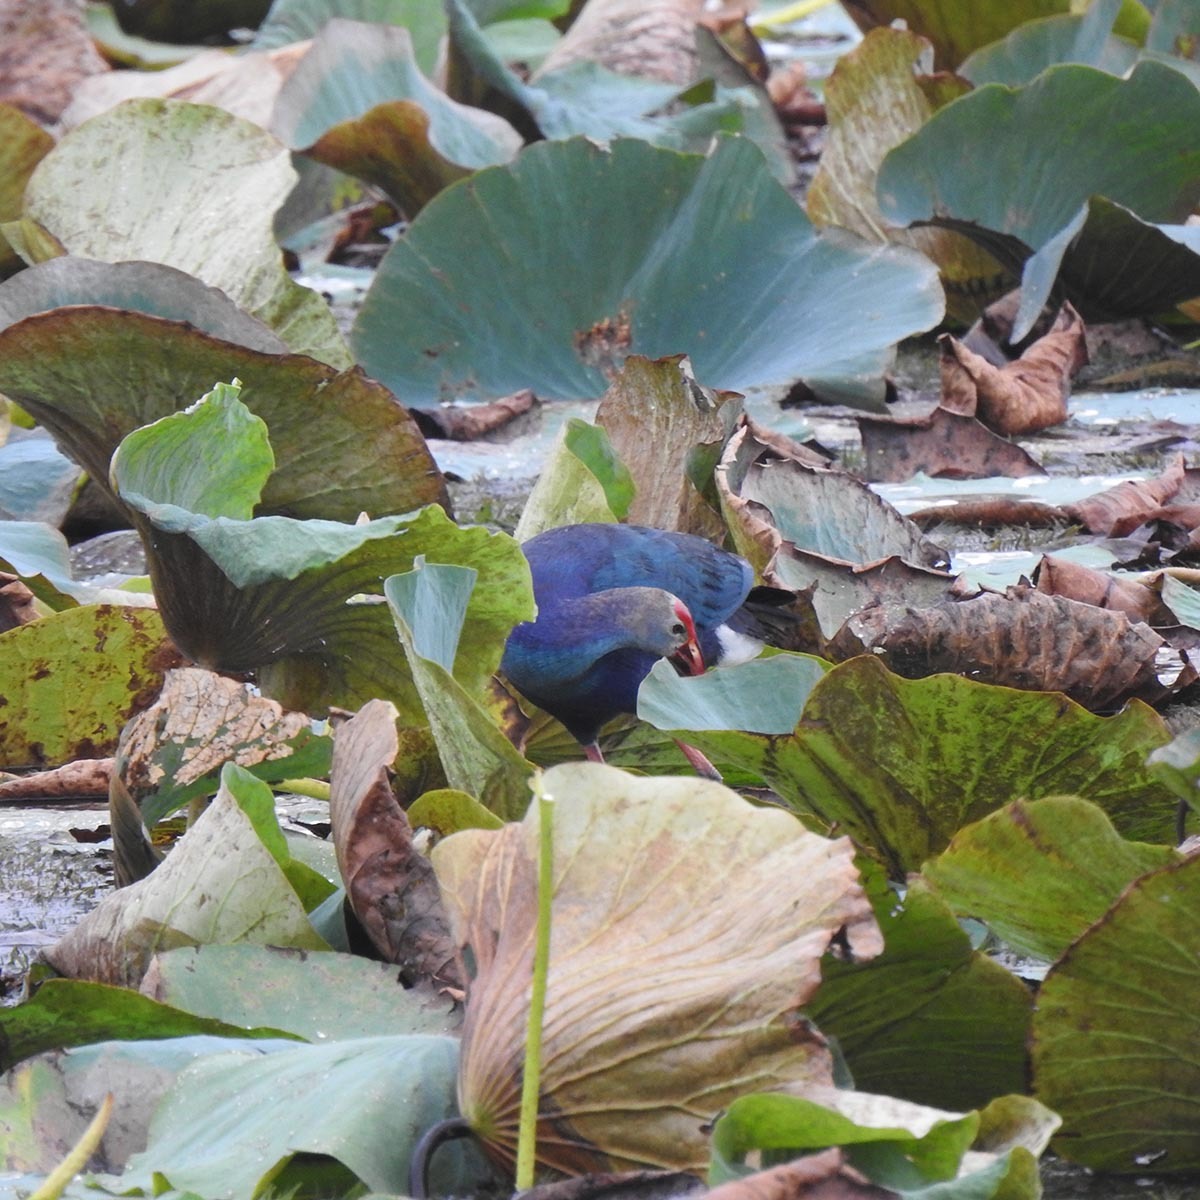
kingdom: Animalia
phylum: Chordata
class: Aves
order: Gruiformes
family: Rallidae
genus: Porphyrio
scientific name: Porphyrio porphyrio
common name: Purple swamphen
